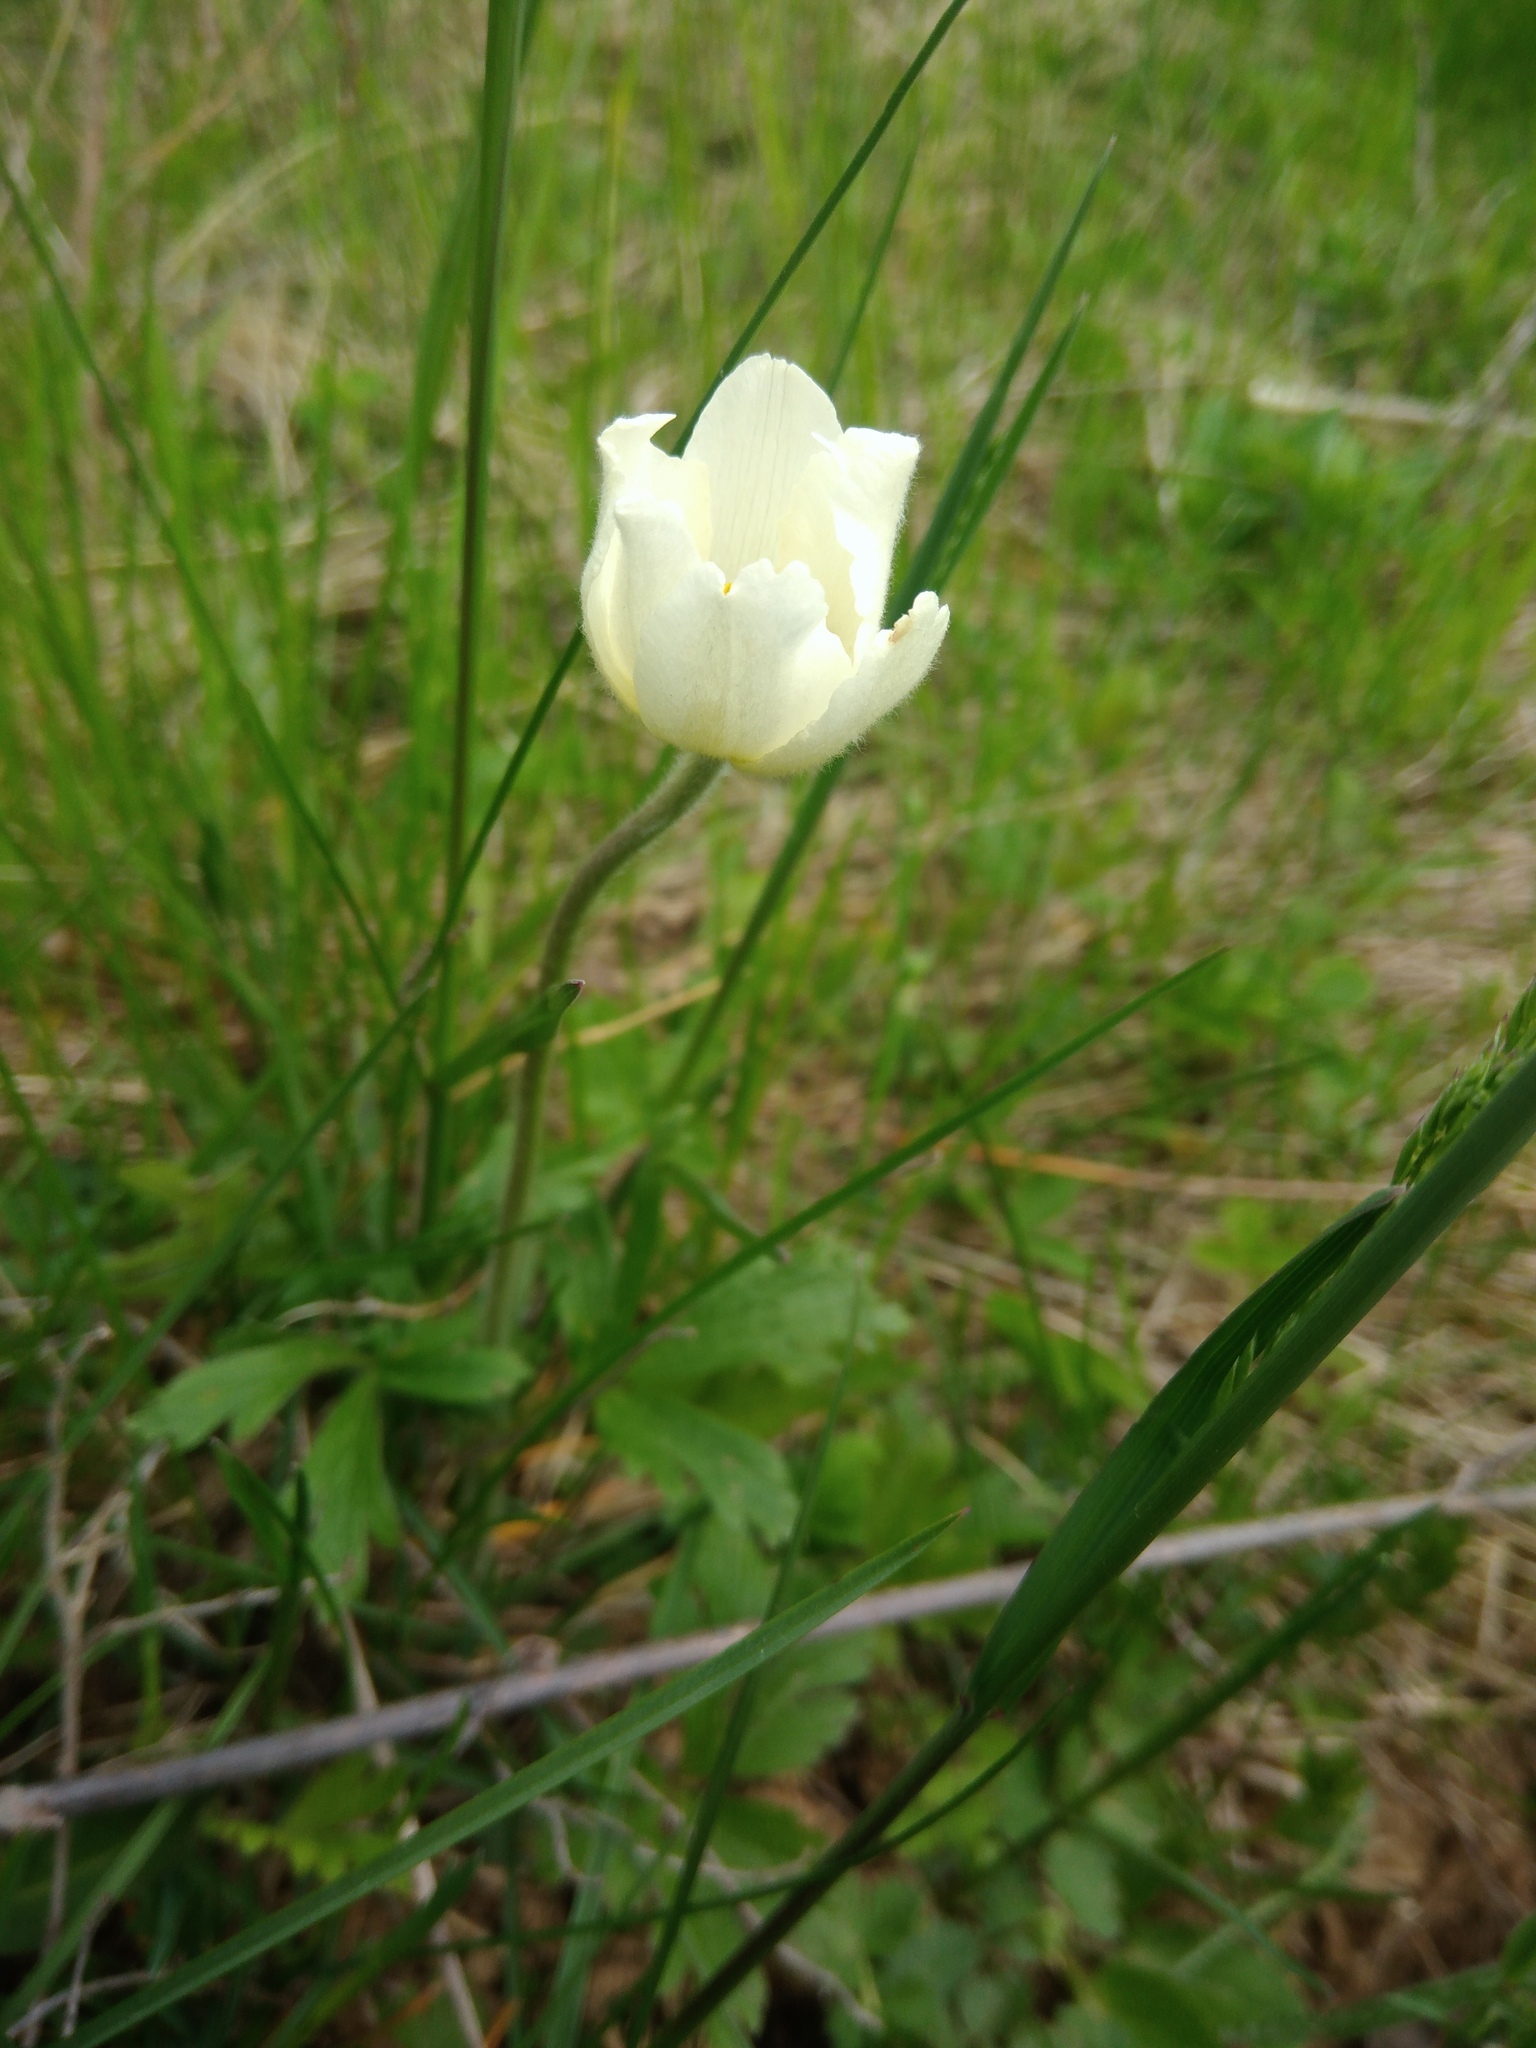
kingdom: Plantae
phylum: Tracheophyta
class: Magnoliopsida
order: Ranunculales
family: Ranunculaceae
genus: Anemone
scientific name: Anemone sylvestris
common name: Snowdrop anemone
